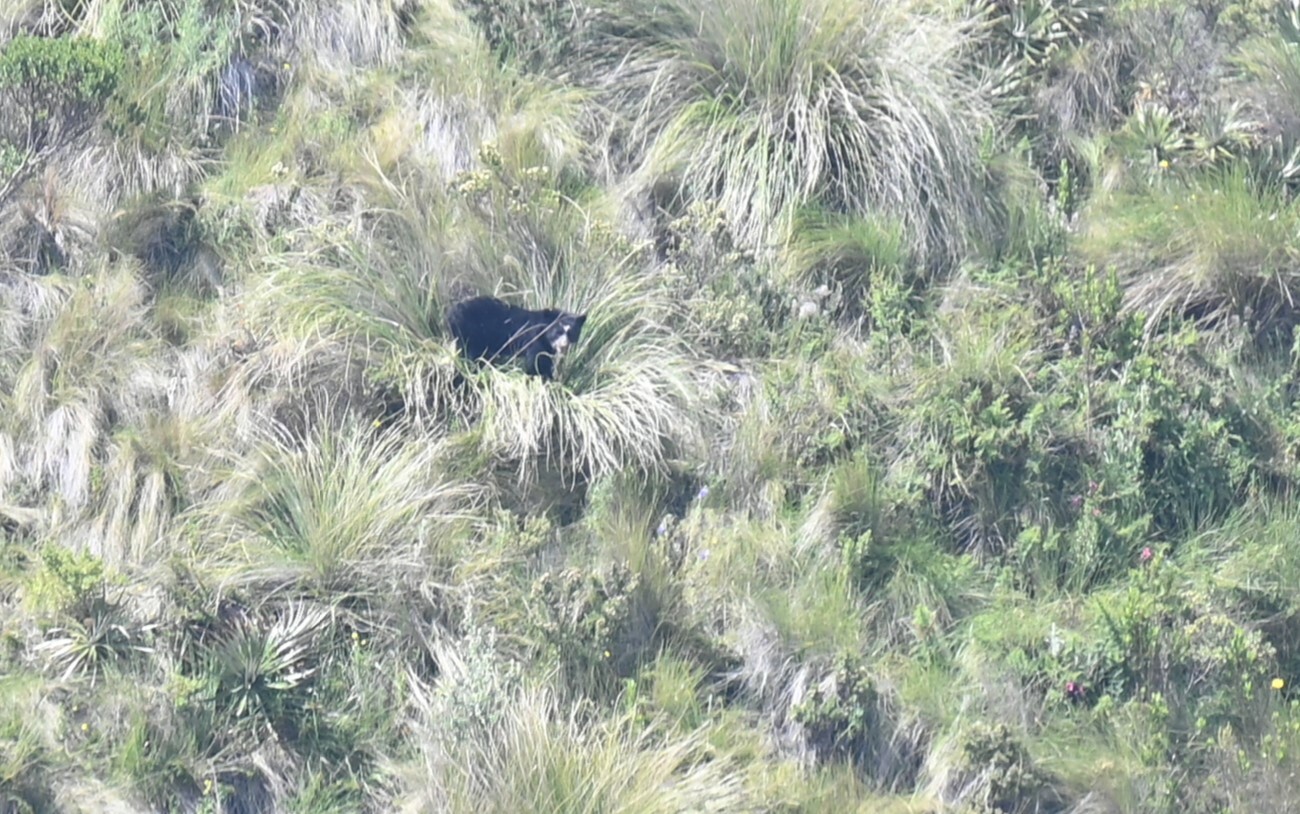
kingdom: Animalia
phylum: Chordata
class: Mammalia
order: Carnivora
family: Ursidae
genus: Tremarctos
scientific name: Tremarctos ornatus
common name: Spectacled bear
